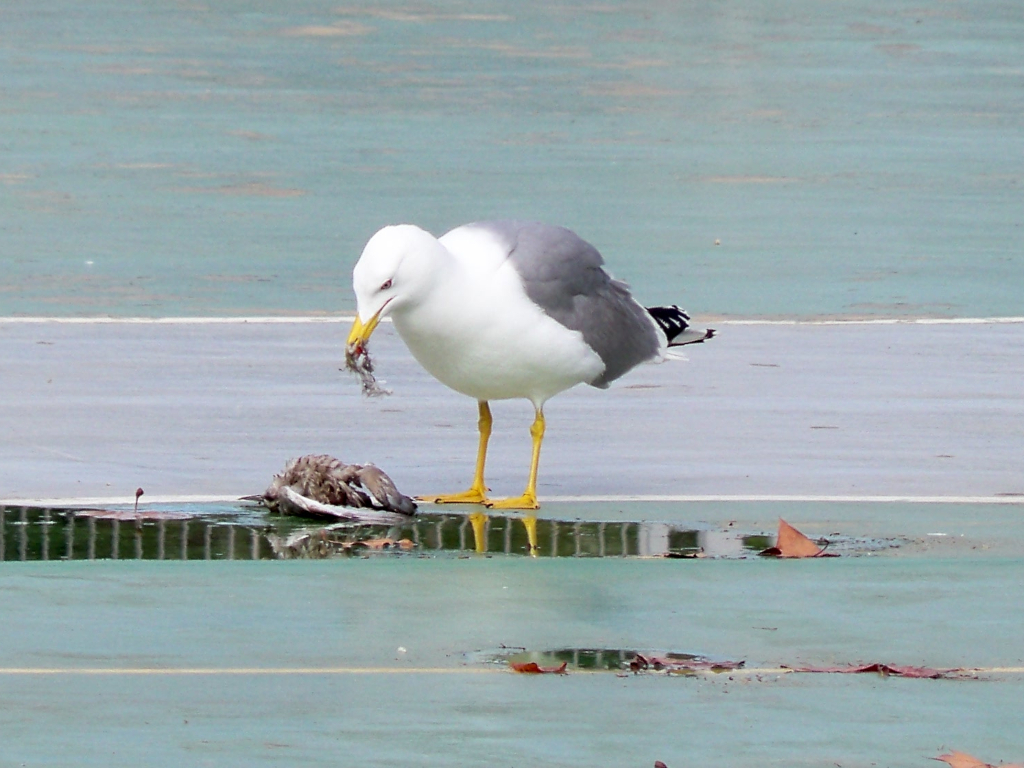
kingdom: Animalia
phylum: Chordata
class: Aves
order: Charadriiformes
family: Laridae
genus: Larus
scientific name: Larus michahellis
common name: Yellow-legged gull
